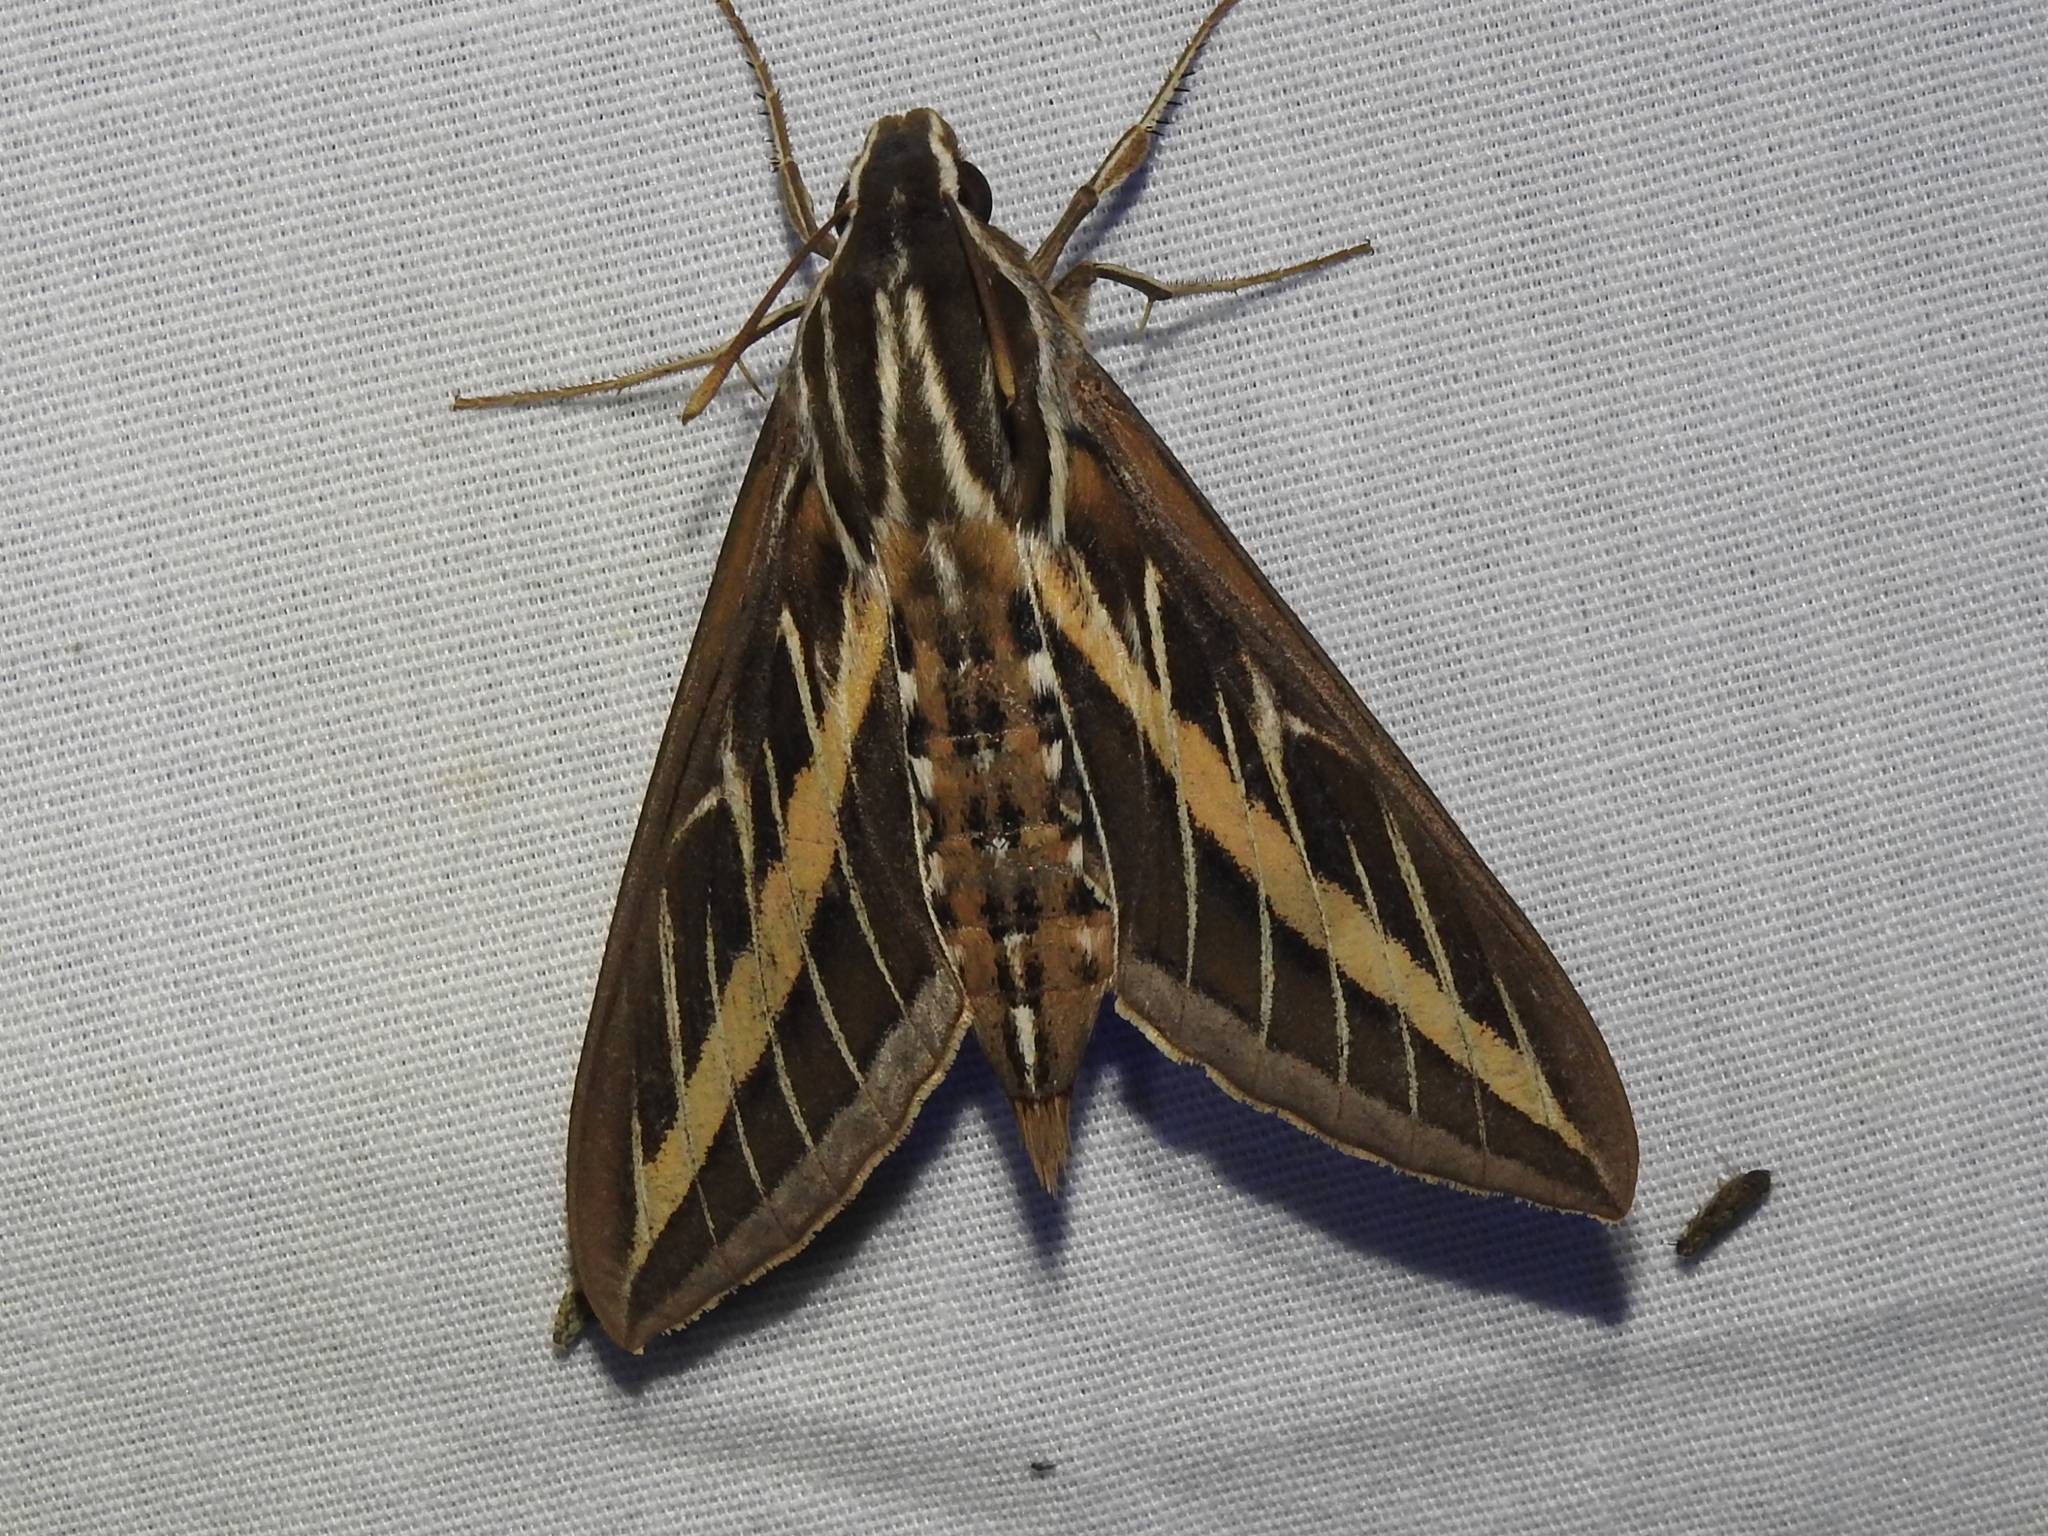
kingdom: Animalia
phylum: Arthropoda
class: Insecta
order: Lepidoptera
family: Sphingidae
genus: Hyles
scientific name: Hyles lineata
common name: White-lined sphinx
